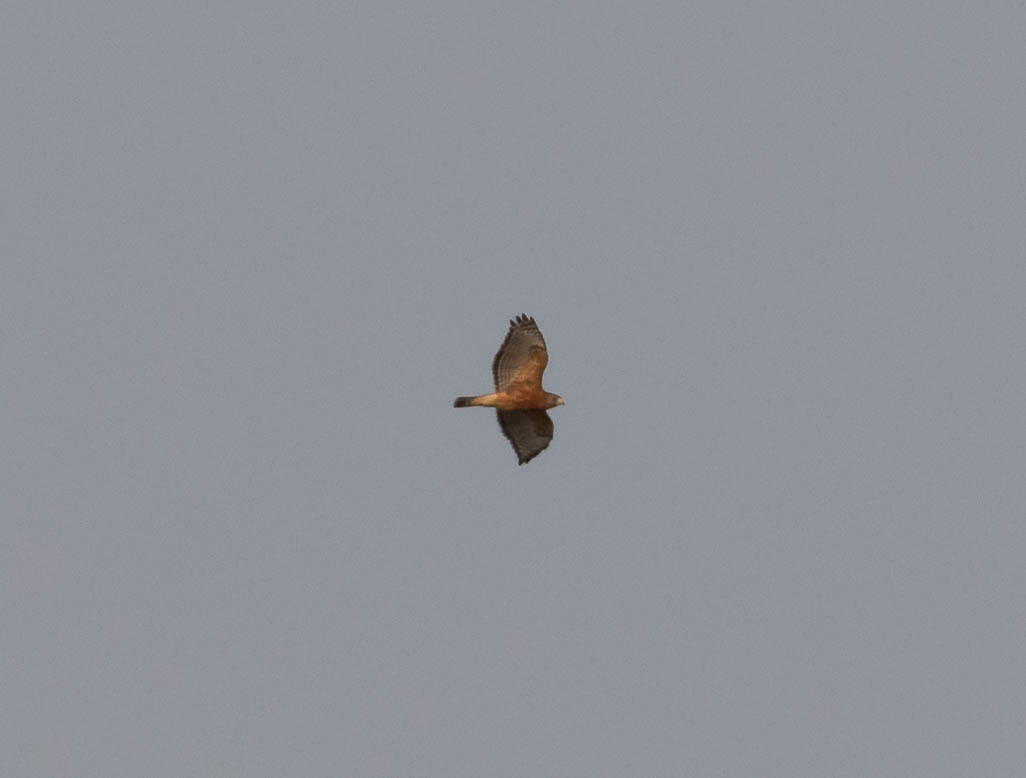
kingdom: Animalia
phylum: Chordata
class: Aves
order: Accipitriformes
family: Accipitridae
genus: Buteo
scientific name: Buteo platypterus
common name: Broad-winged hawk
